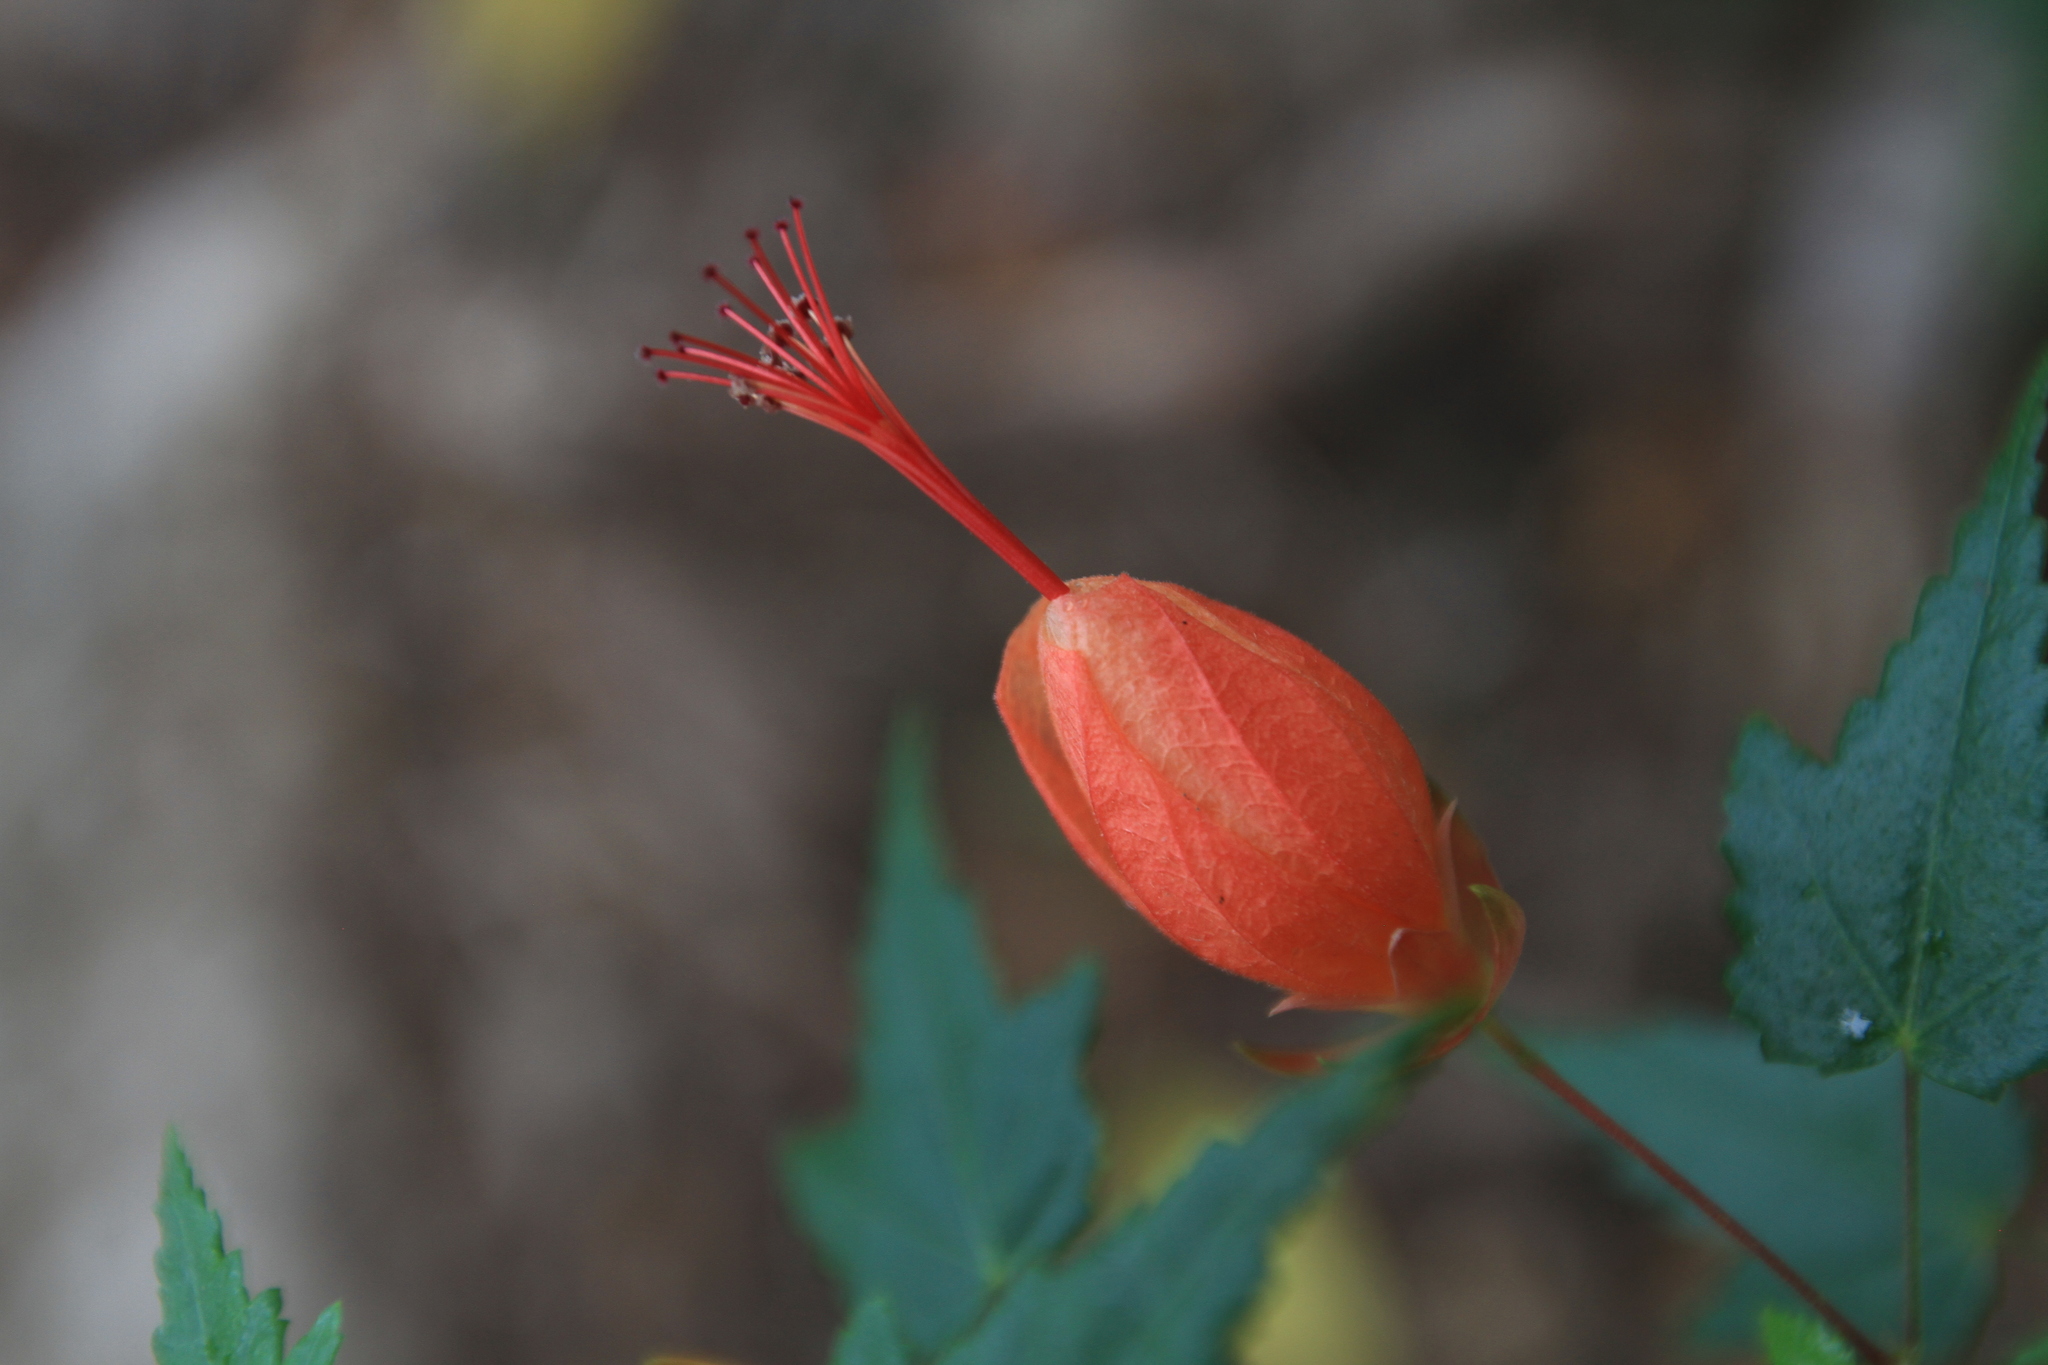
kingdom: Plantae
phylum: Tracheophyta
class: Magnoliopsida
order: Malvales
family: Malvaceae
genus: Pavonia
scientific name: Pavonia punctata
